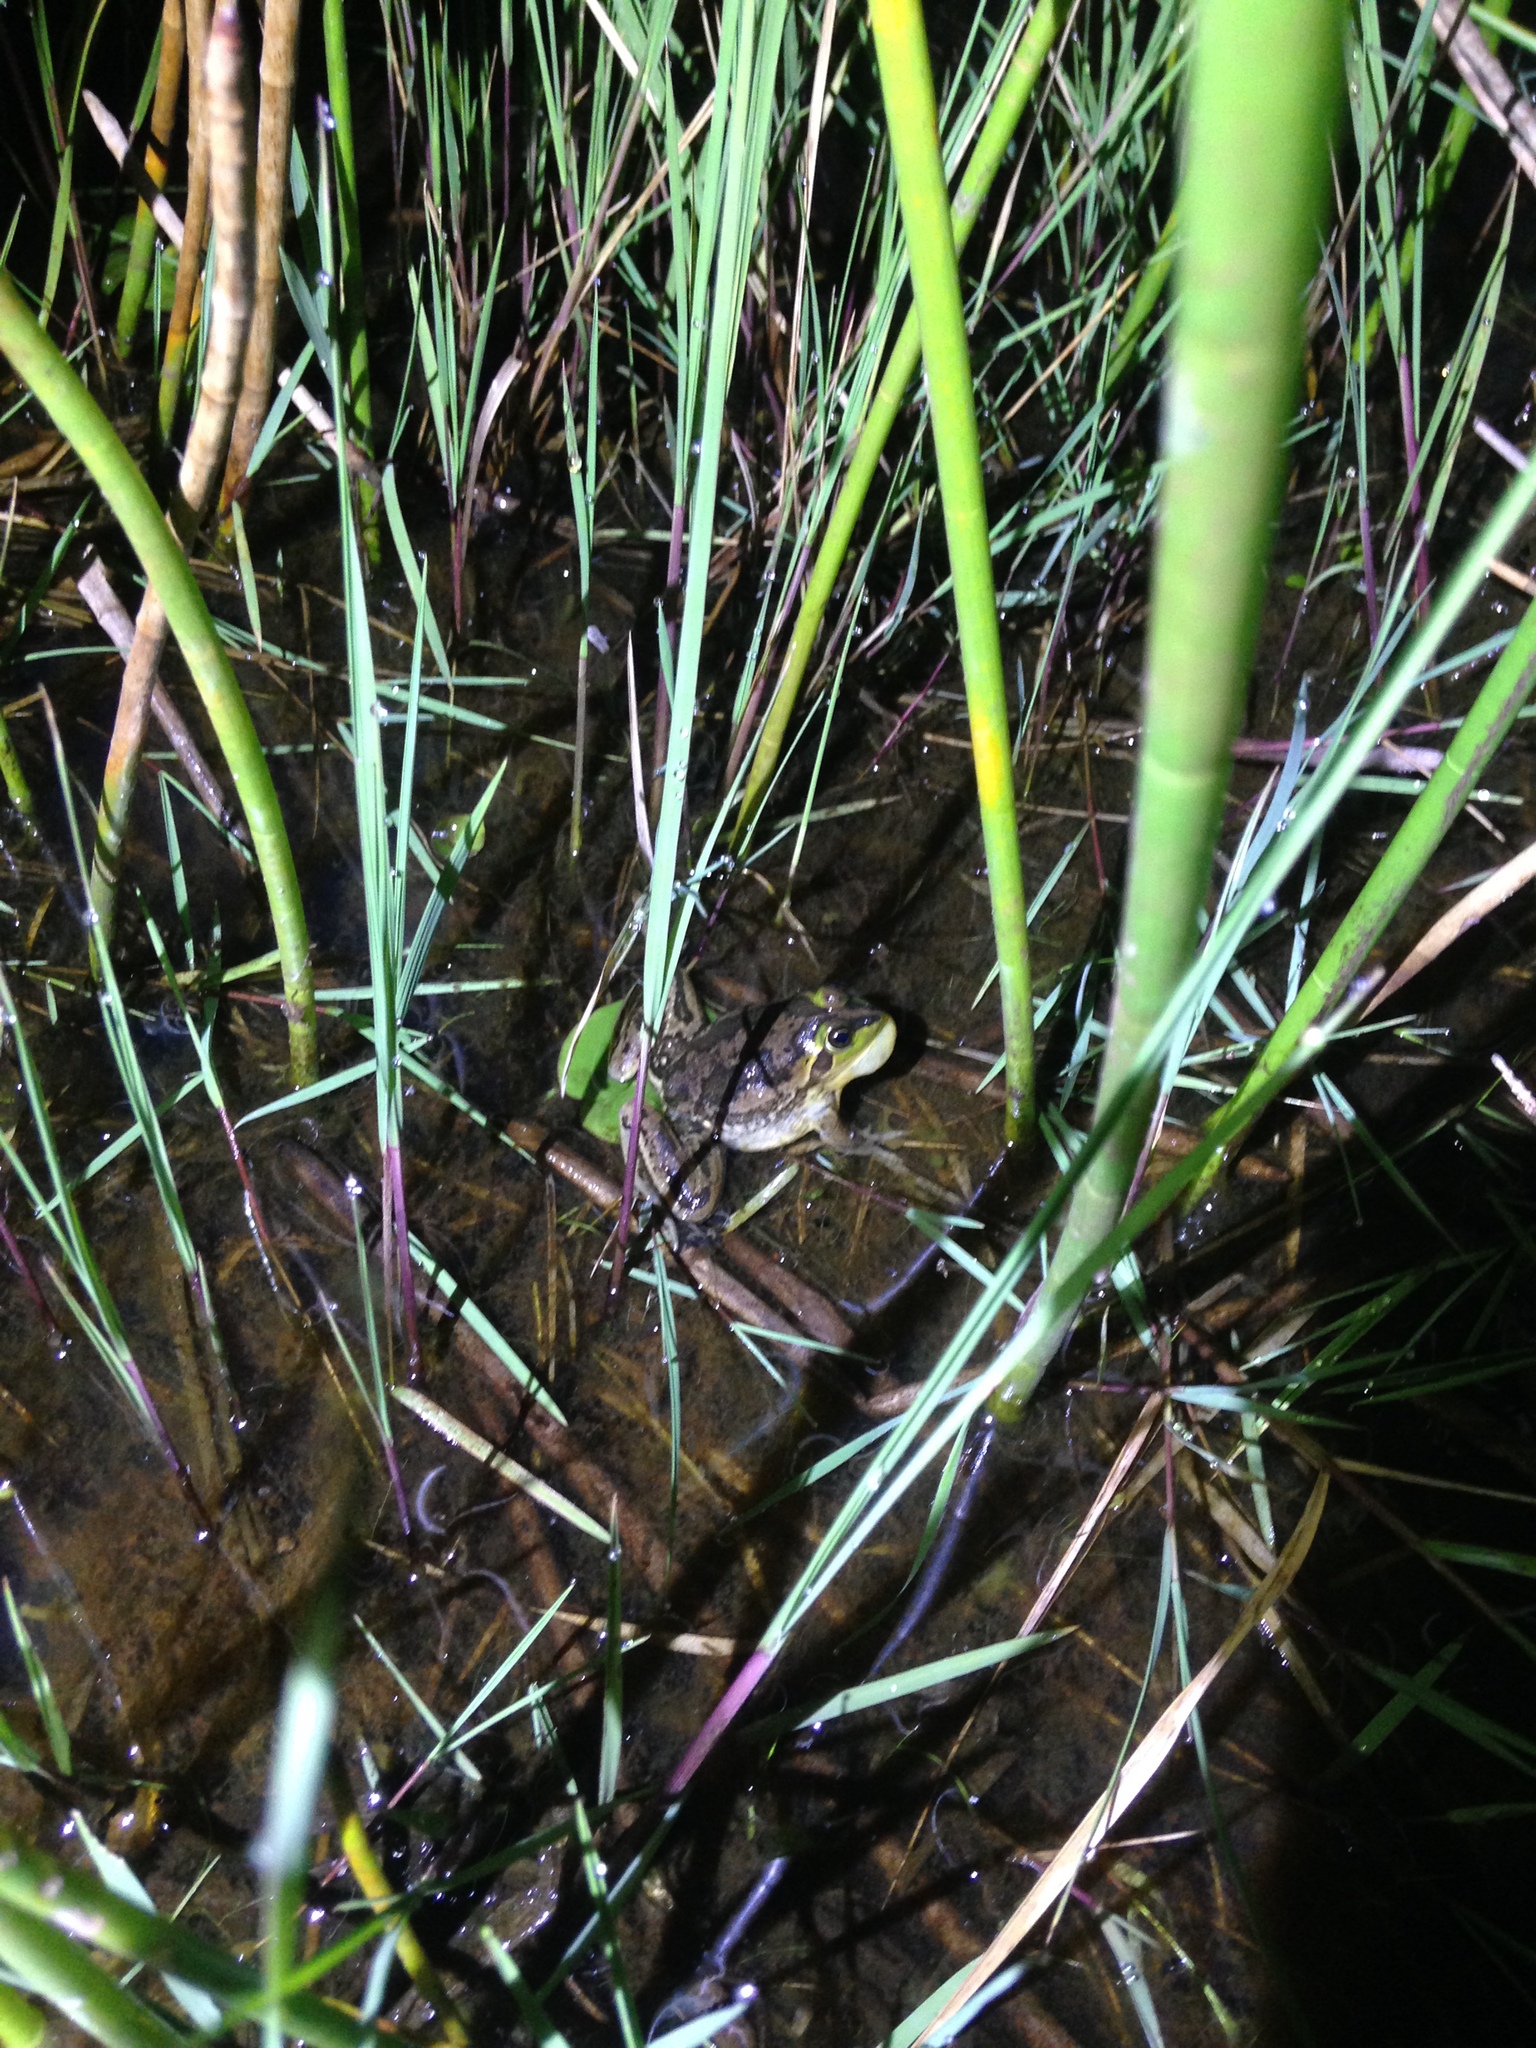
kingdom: Animalia
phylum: Chordata
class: Amphibia
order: Anura
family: Hylidae
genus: Pseudis
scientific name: Pseudis platensis
